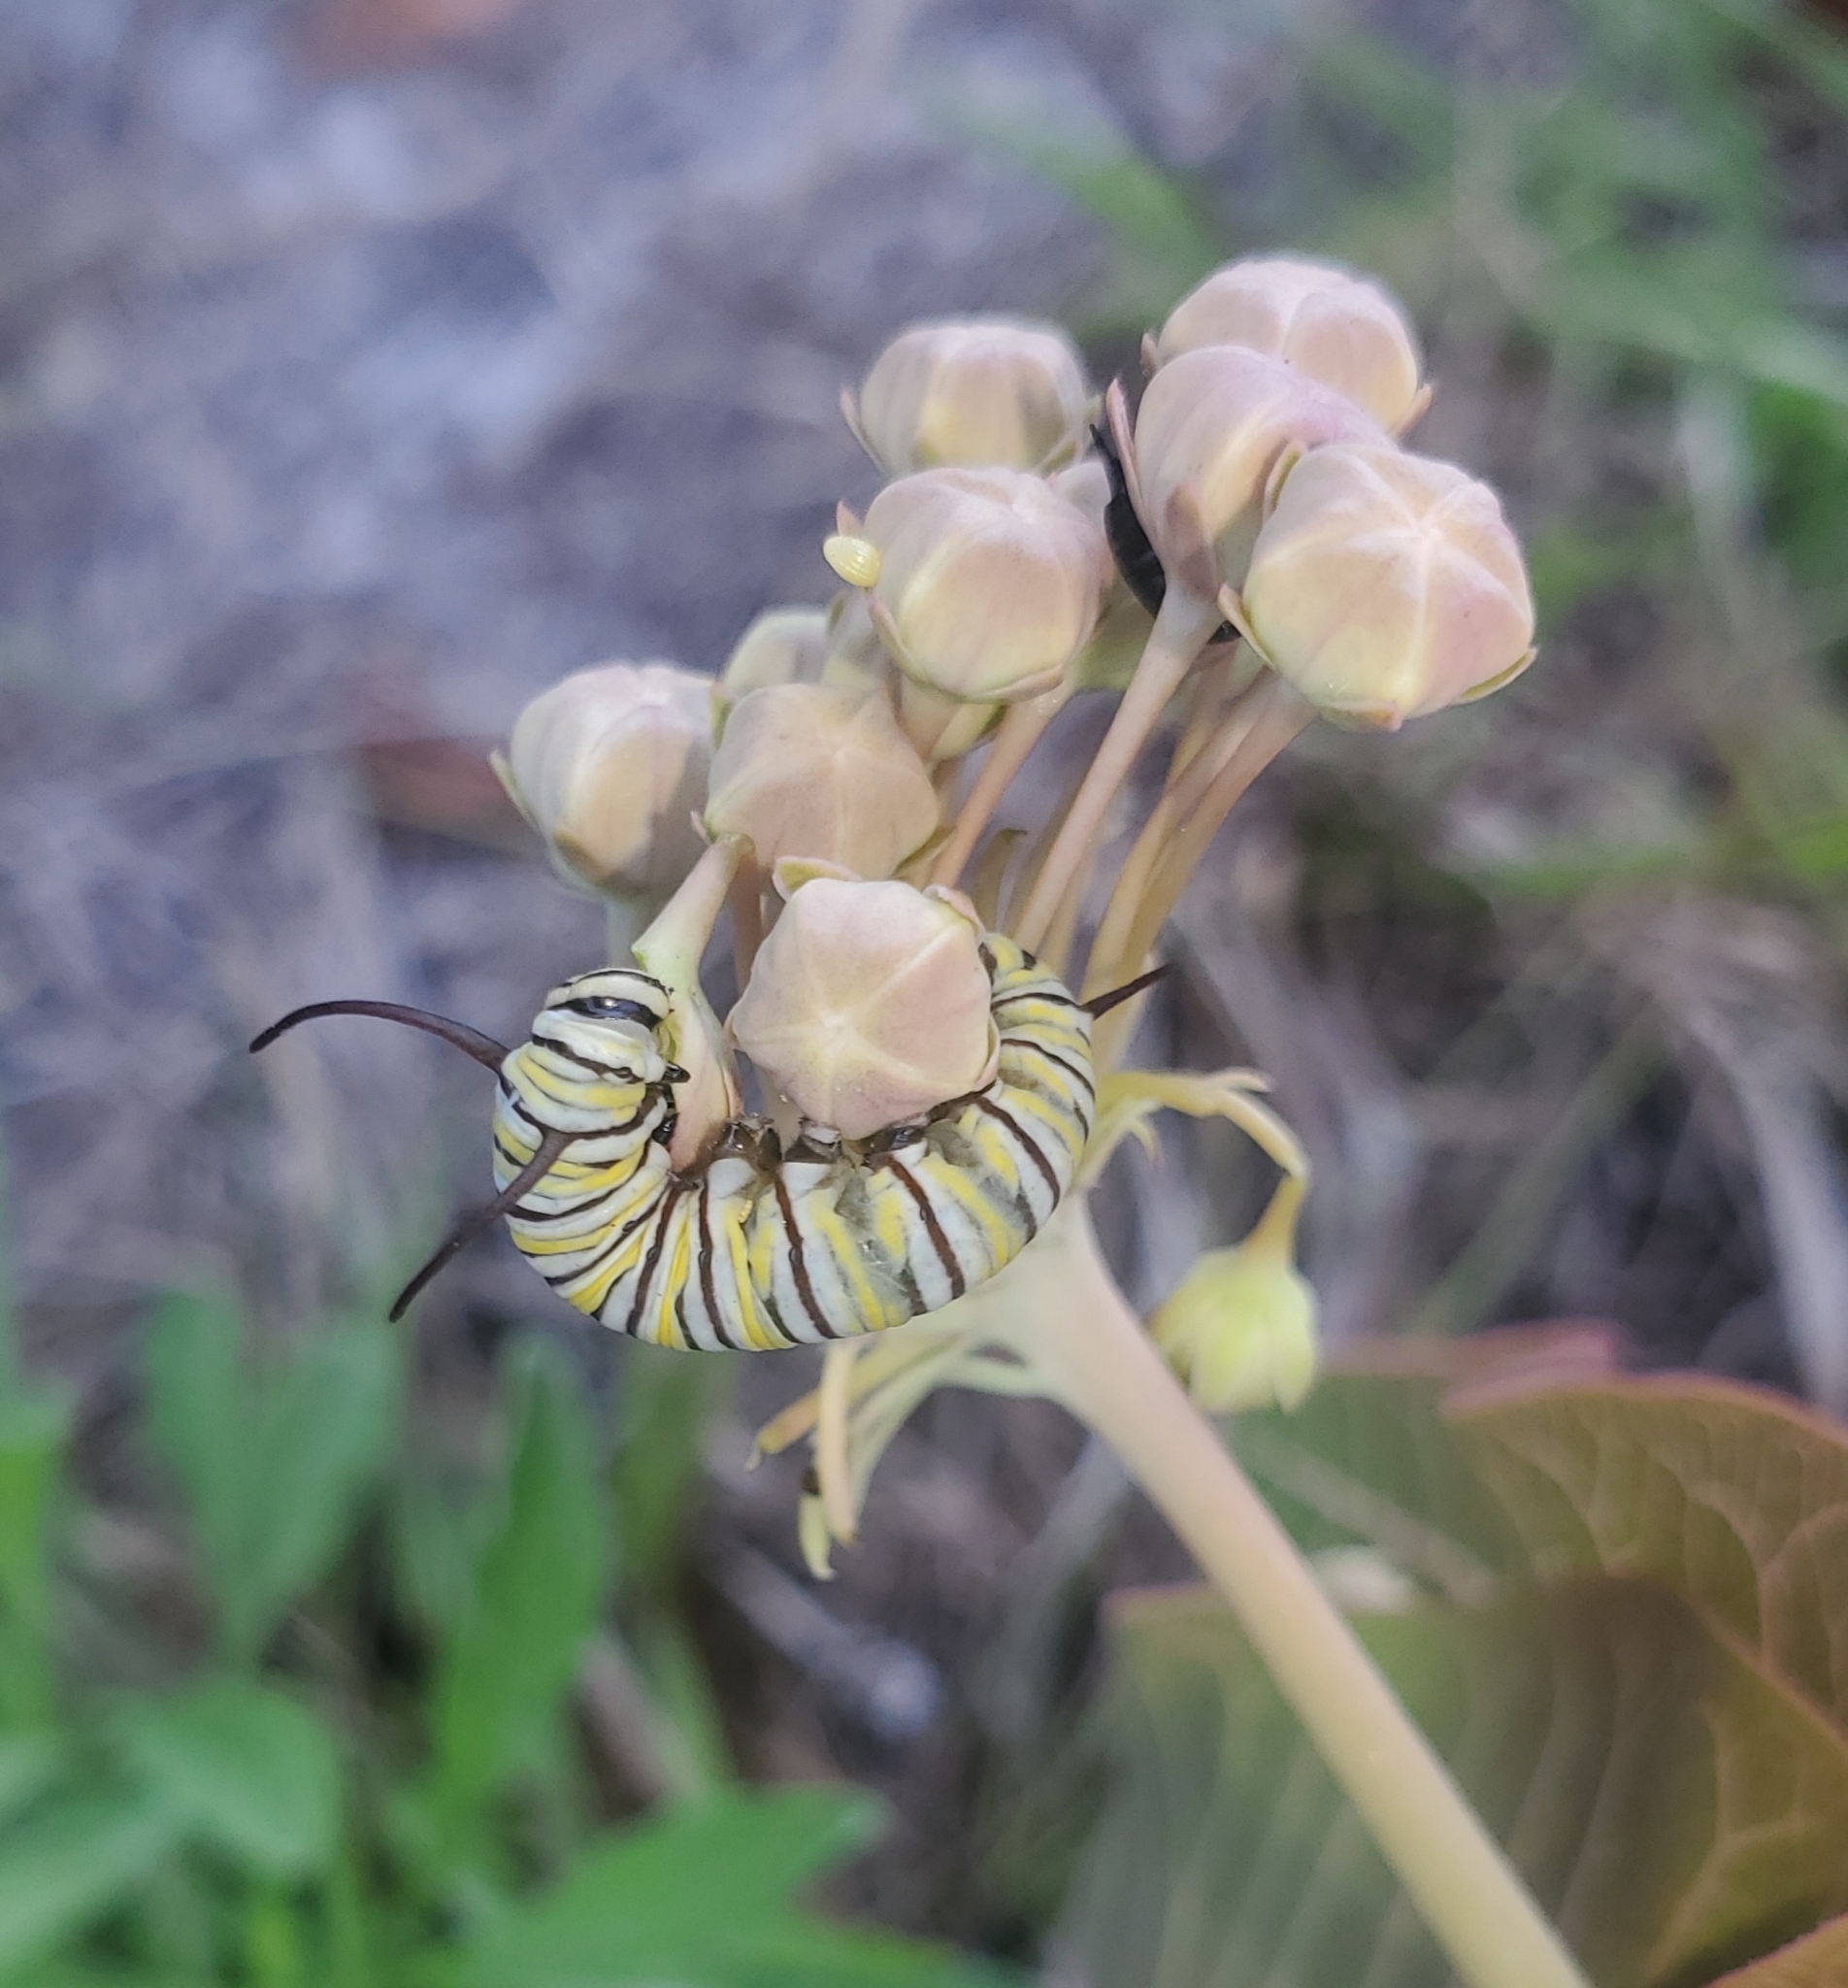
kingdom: Animalia
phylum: Arthropoda
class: Insecta
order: Lepidoptera
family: Nymphalidae
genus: Danaus
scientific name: Danaus plexippus
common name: Monarch
